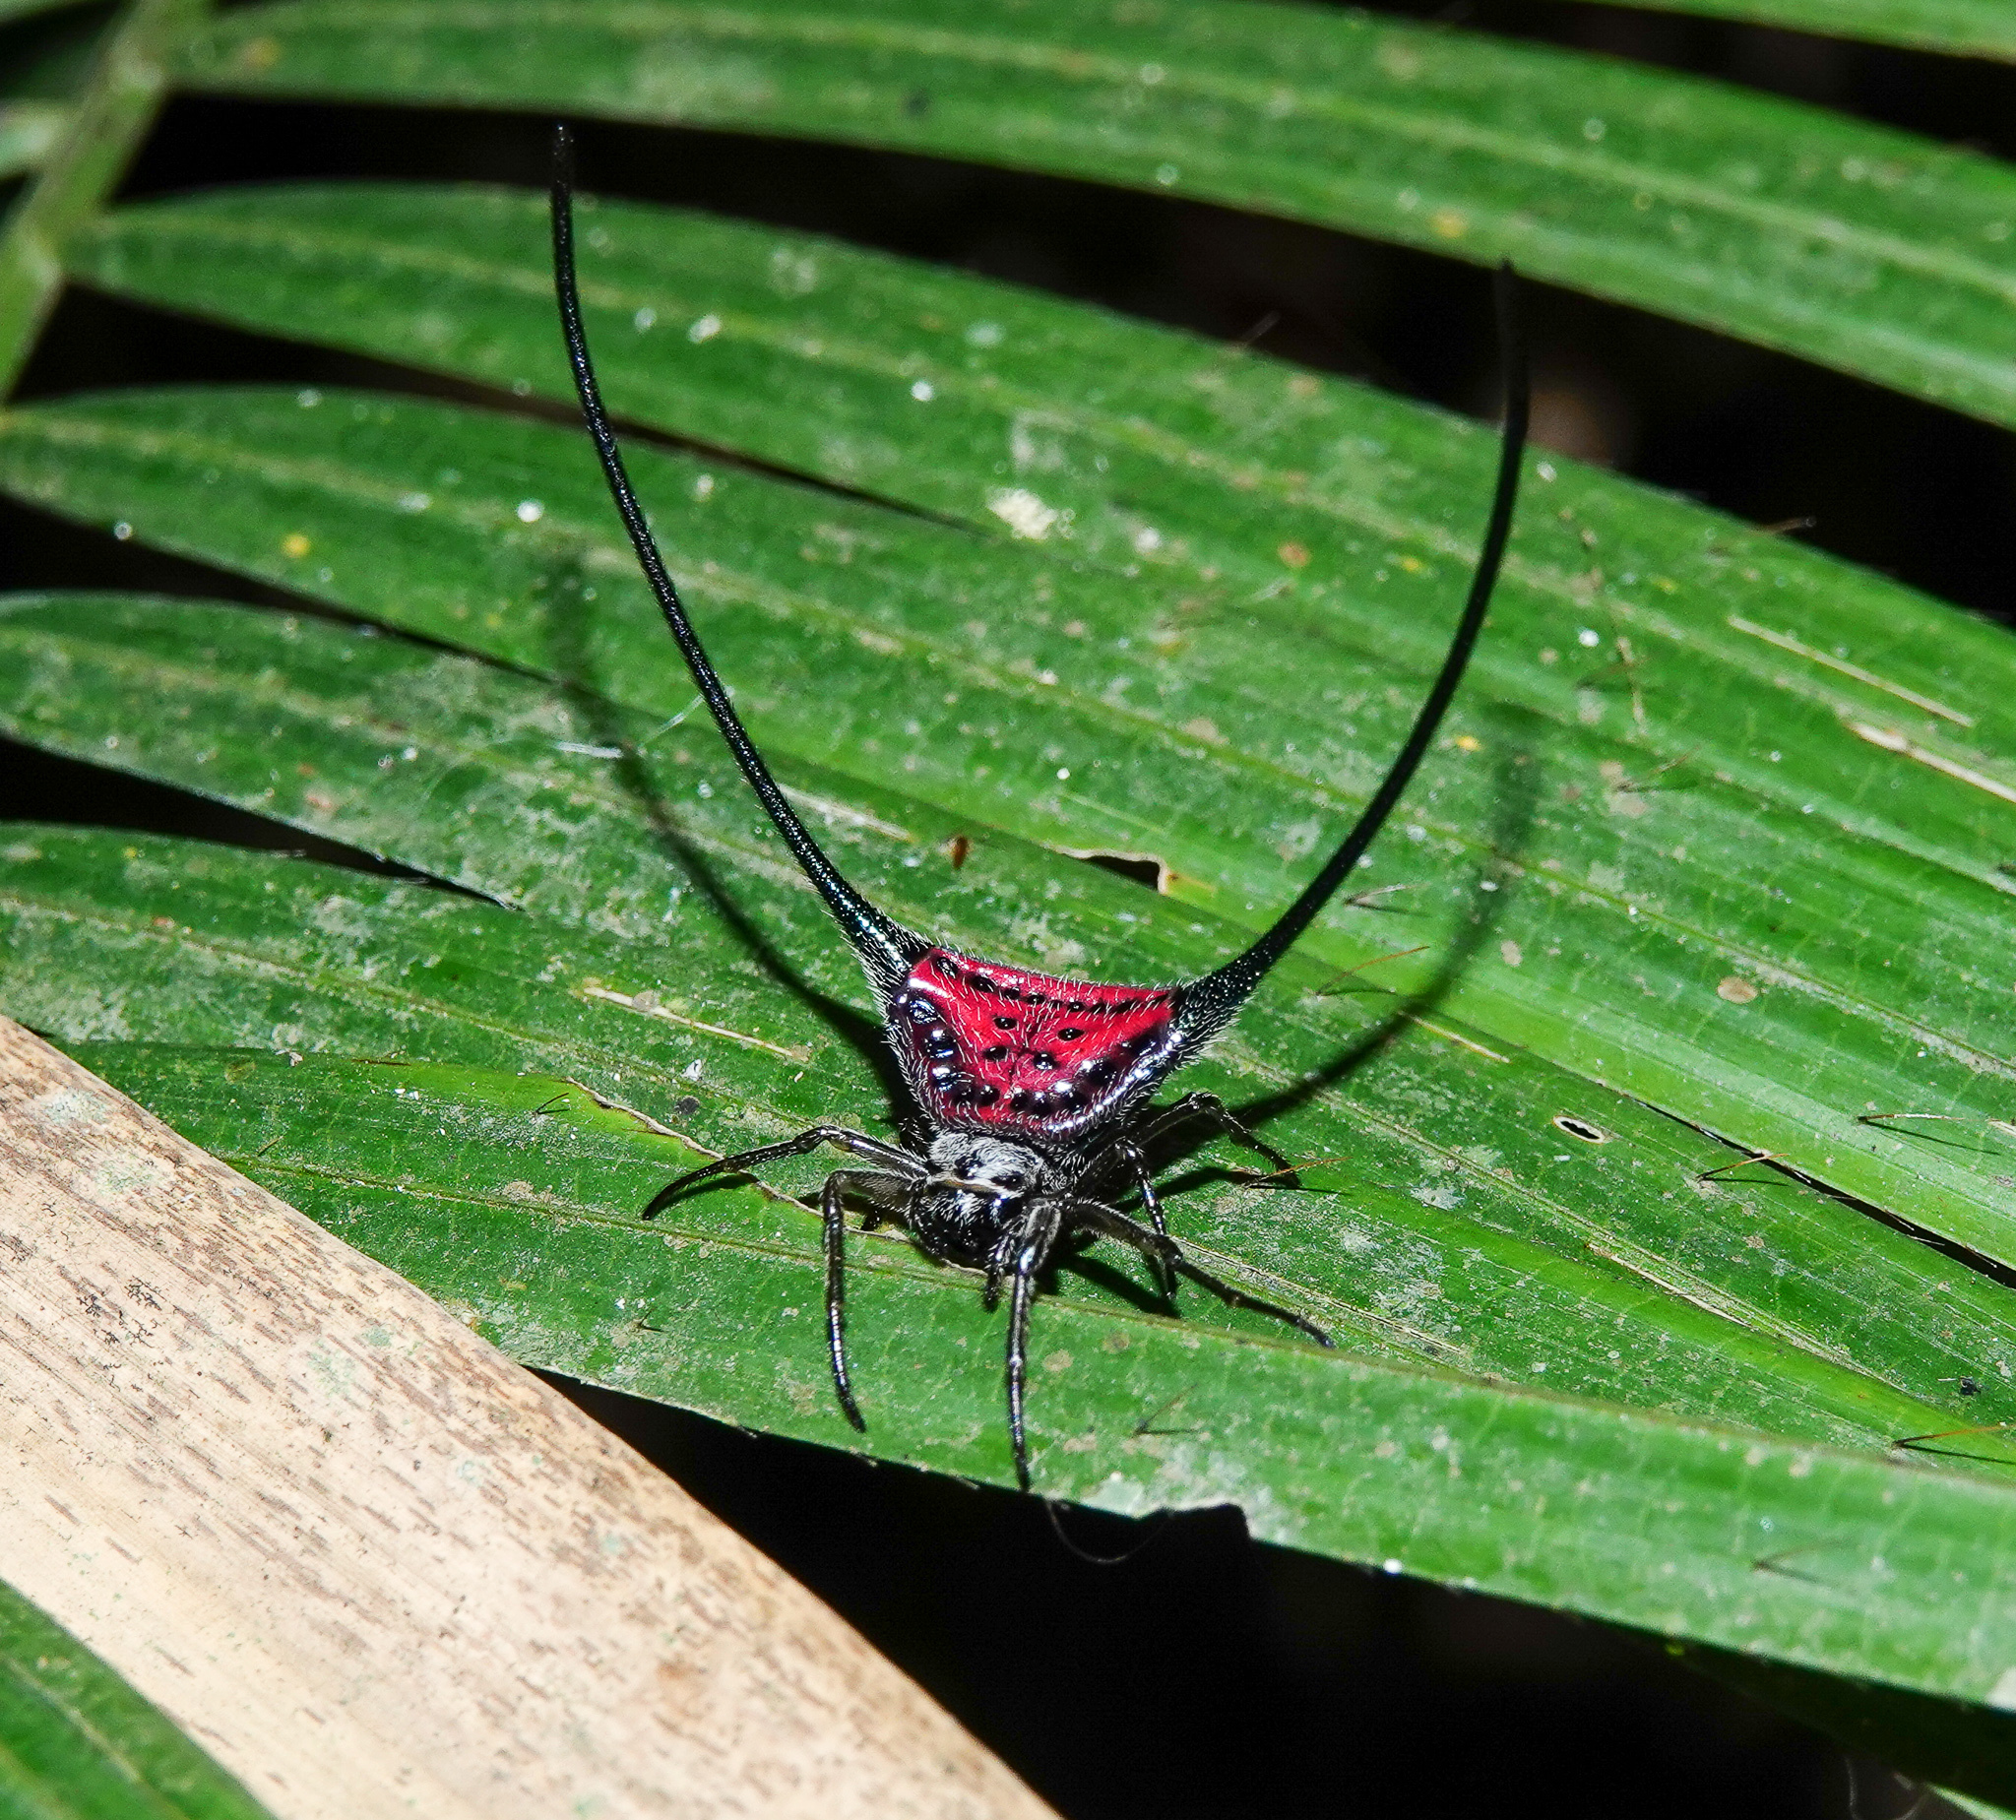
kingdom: Animalia
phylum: Arthropoda
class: Arachnida
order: Araneae
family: Araneidae
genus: Macracantha
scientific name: Macracantha arcuata
